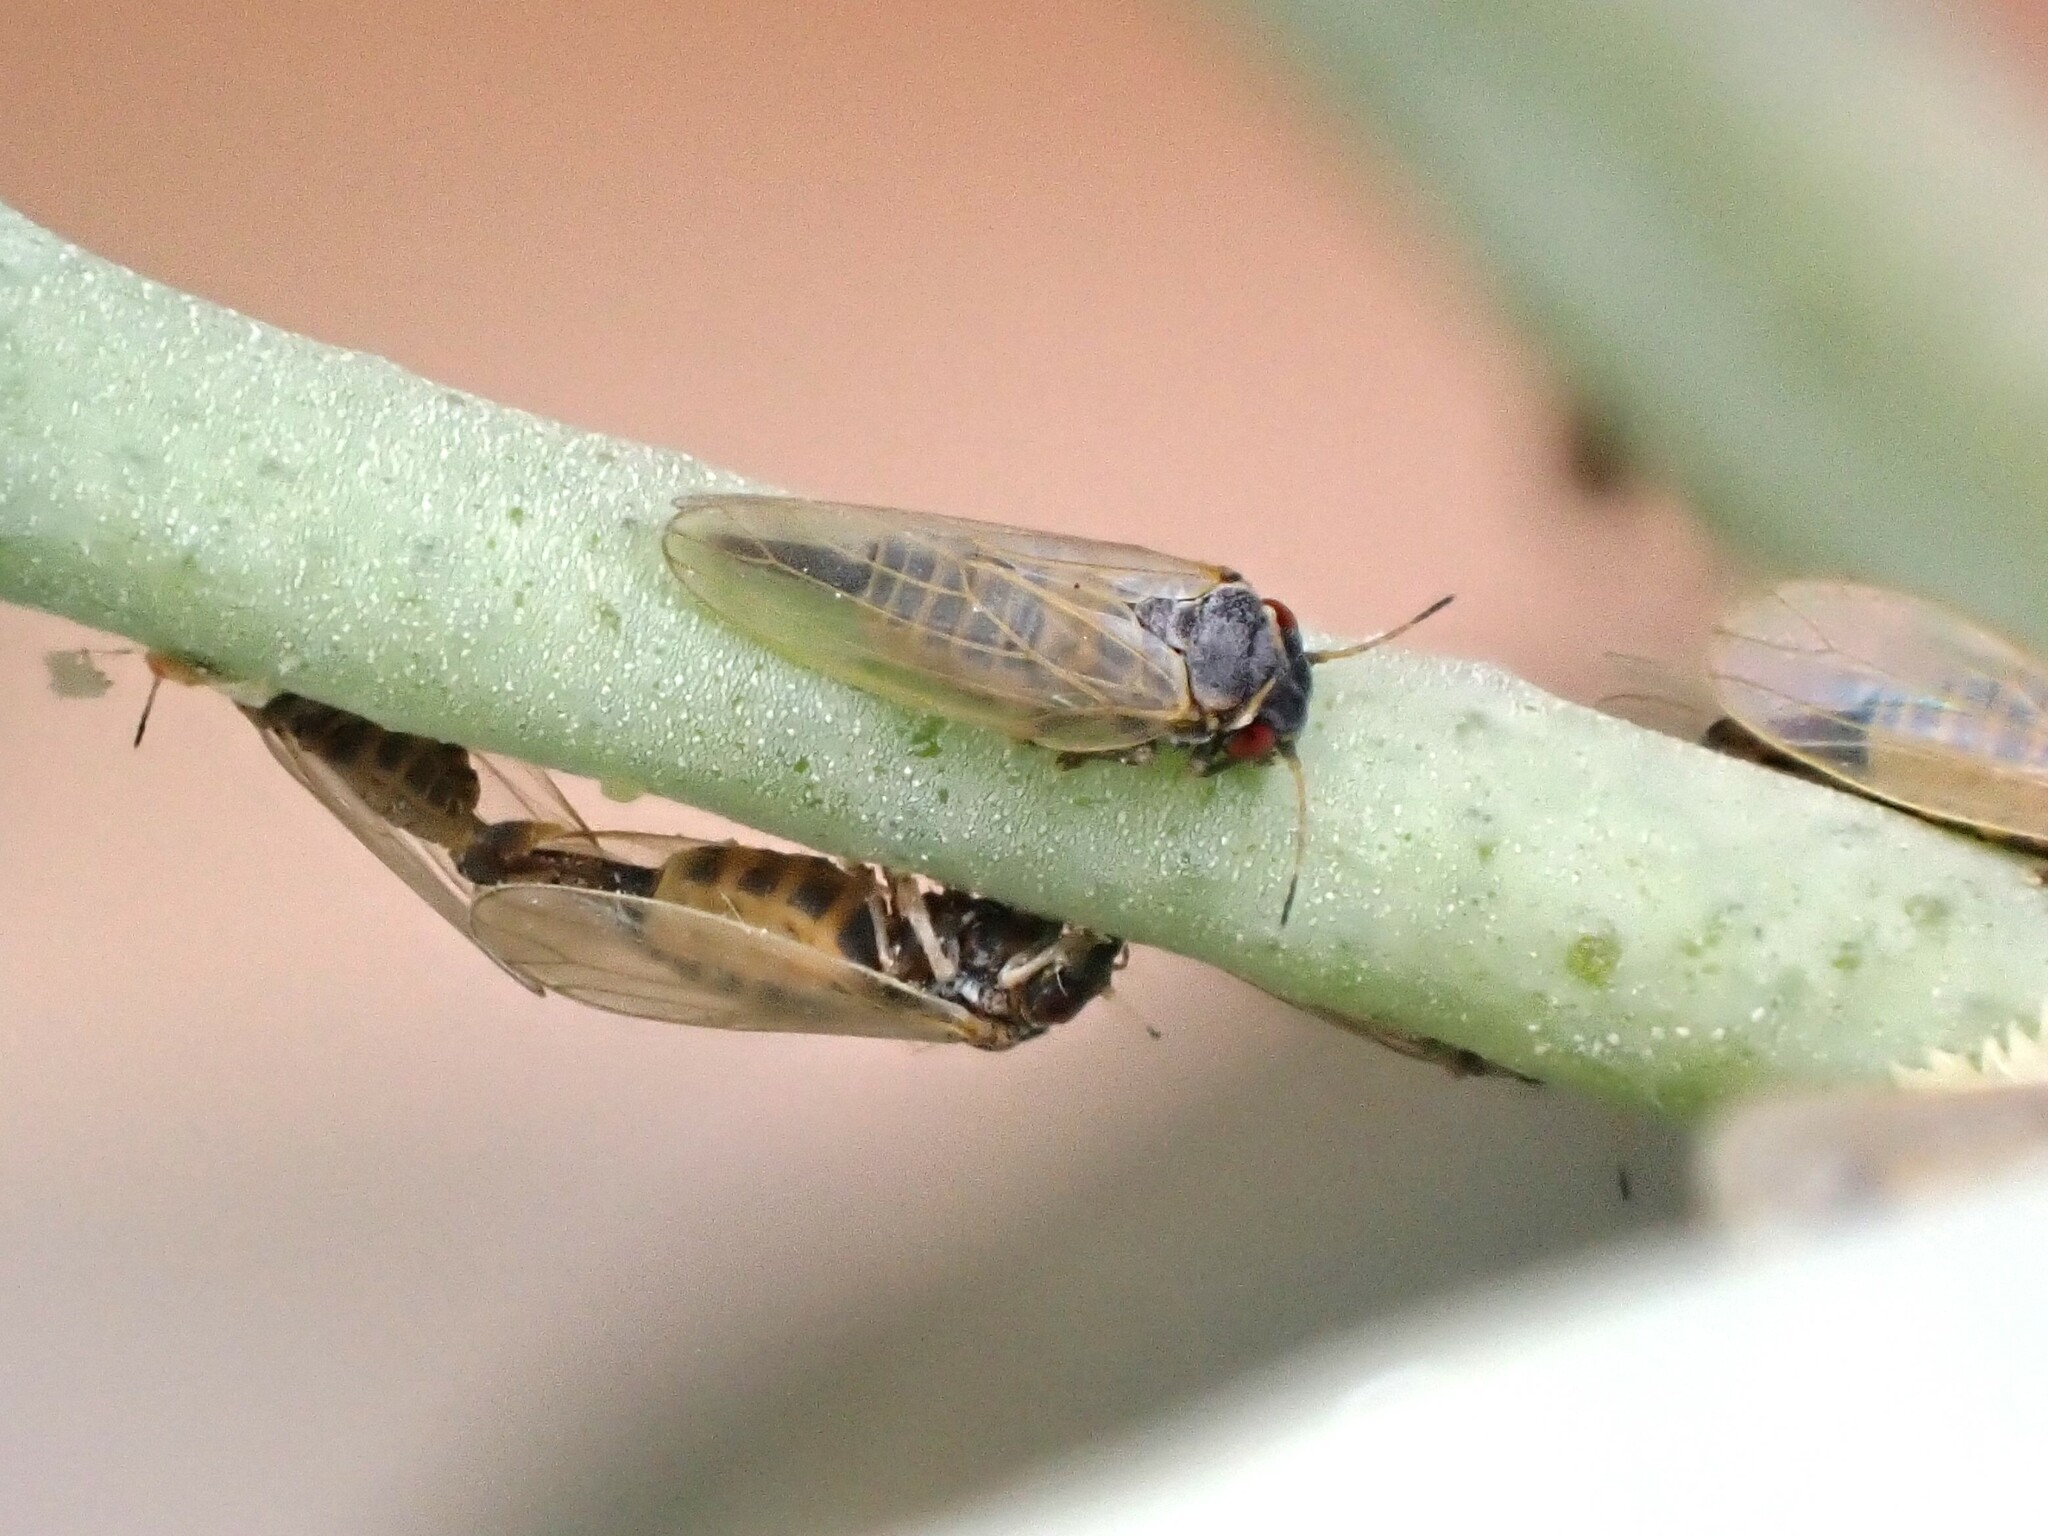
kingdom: Animalia
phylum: Arthropoda
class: Insecta
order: Hemiptera
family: Aphalaridae
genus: Ctenarytaina
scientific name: Ctenarytaina eucalypti
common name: Blue gum psyllid
